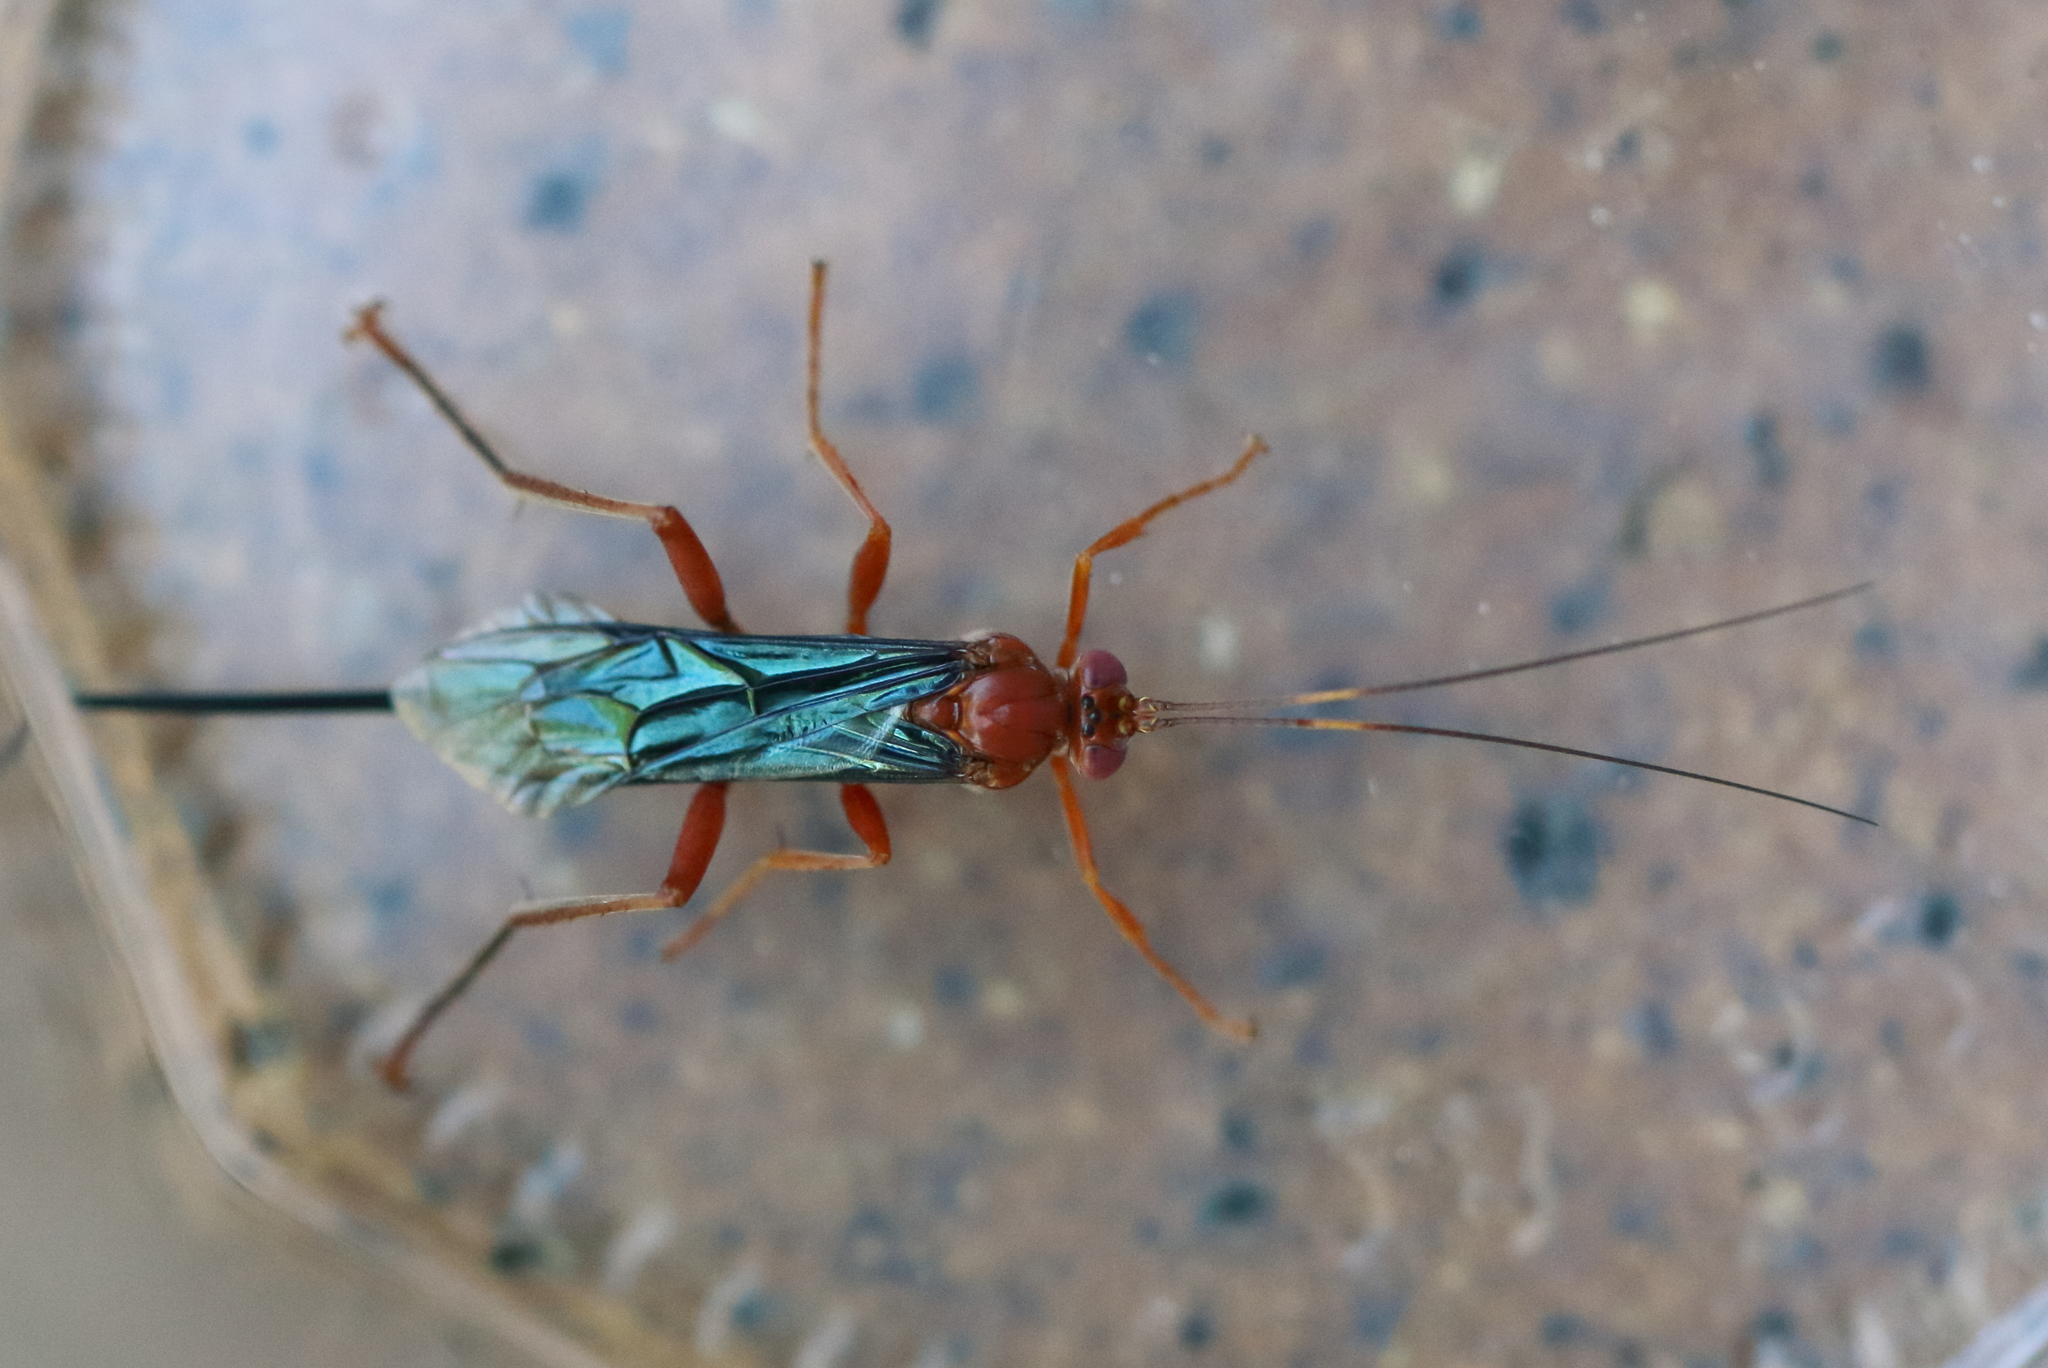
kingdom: Animalia
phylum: Arthropoda
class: Insecta
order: Hymenoptera
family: Ichneumonidae
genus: Lissopimpla
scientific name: Lissopimpla excelsa
